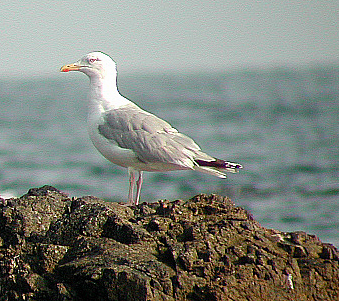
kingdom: Animalia
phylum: Chordata
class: Aves
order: Charadriiformes
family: Laridae
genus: Larus
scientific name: Larus argentatus
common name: Herring gull
